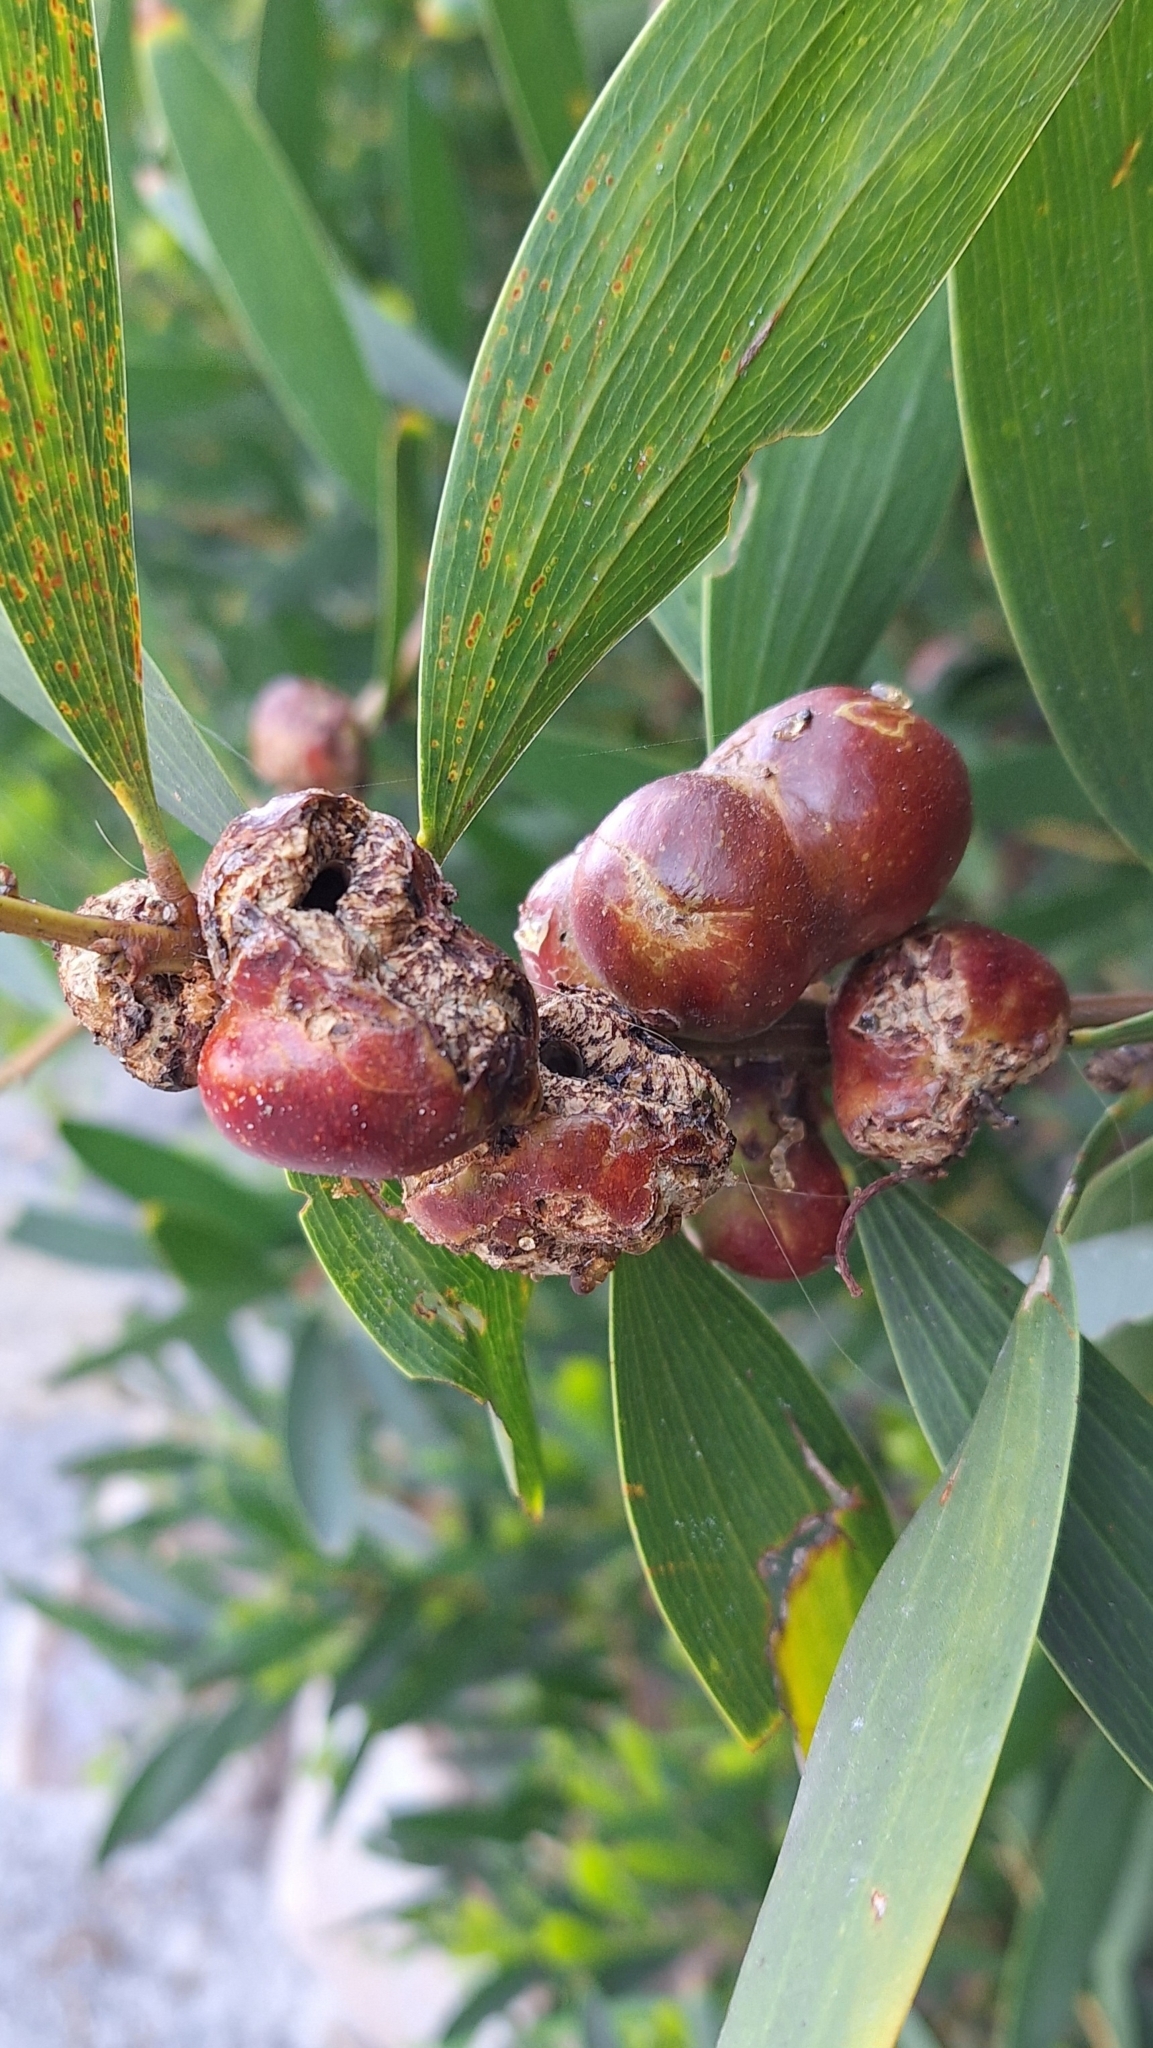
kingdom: Animalia
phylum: Arthropoda
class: Insecta
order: Hymenoptera
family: Pteromalidae
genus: Trichilogaster
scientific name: Trichilogaster acaciaelongifoliae
